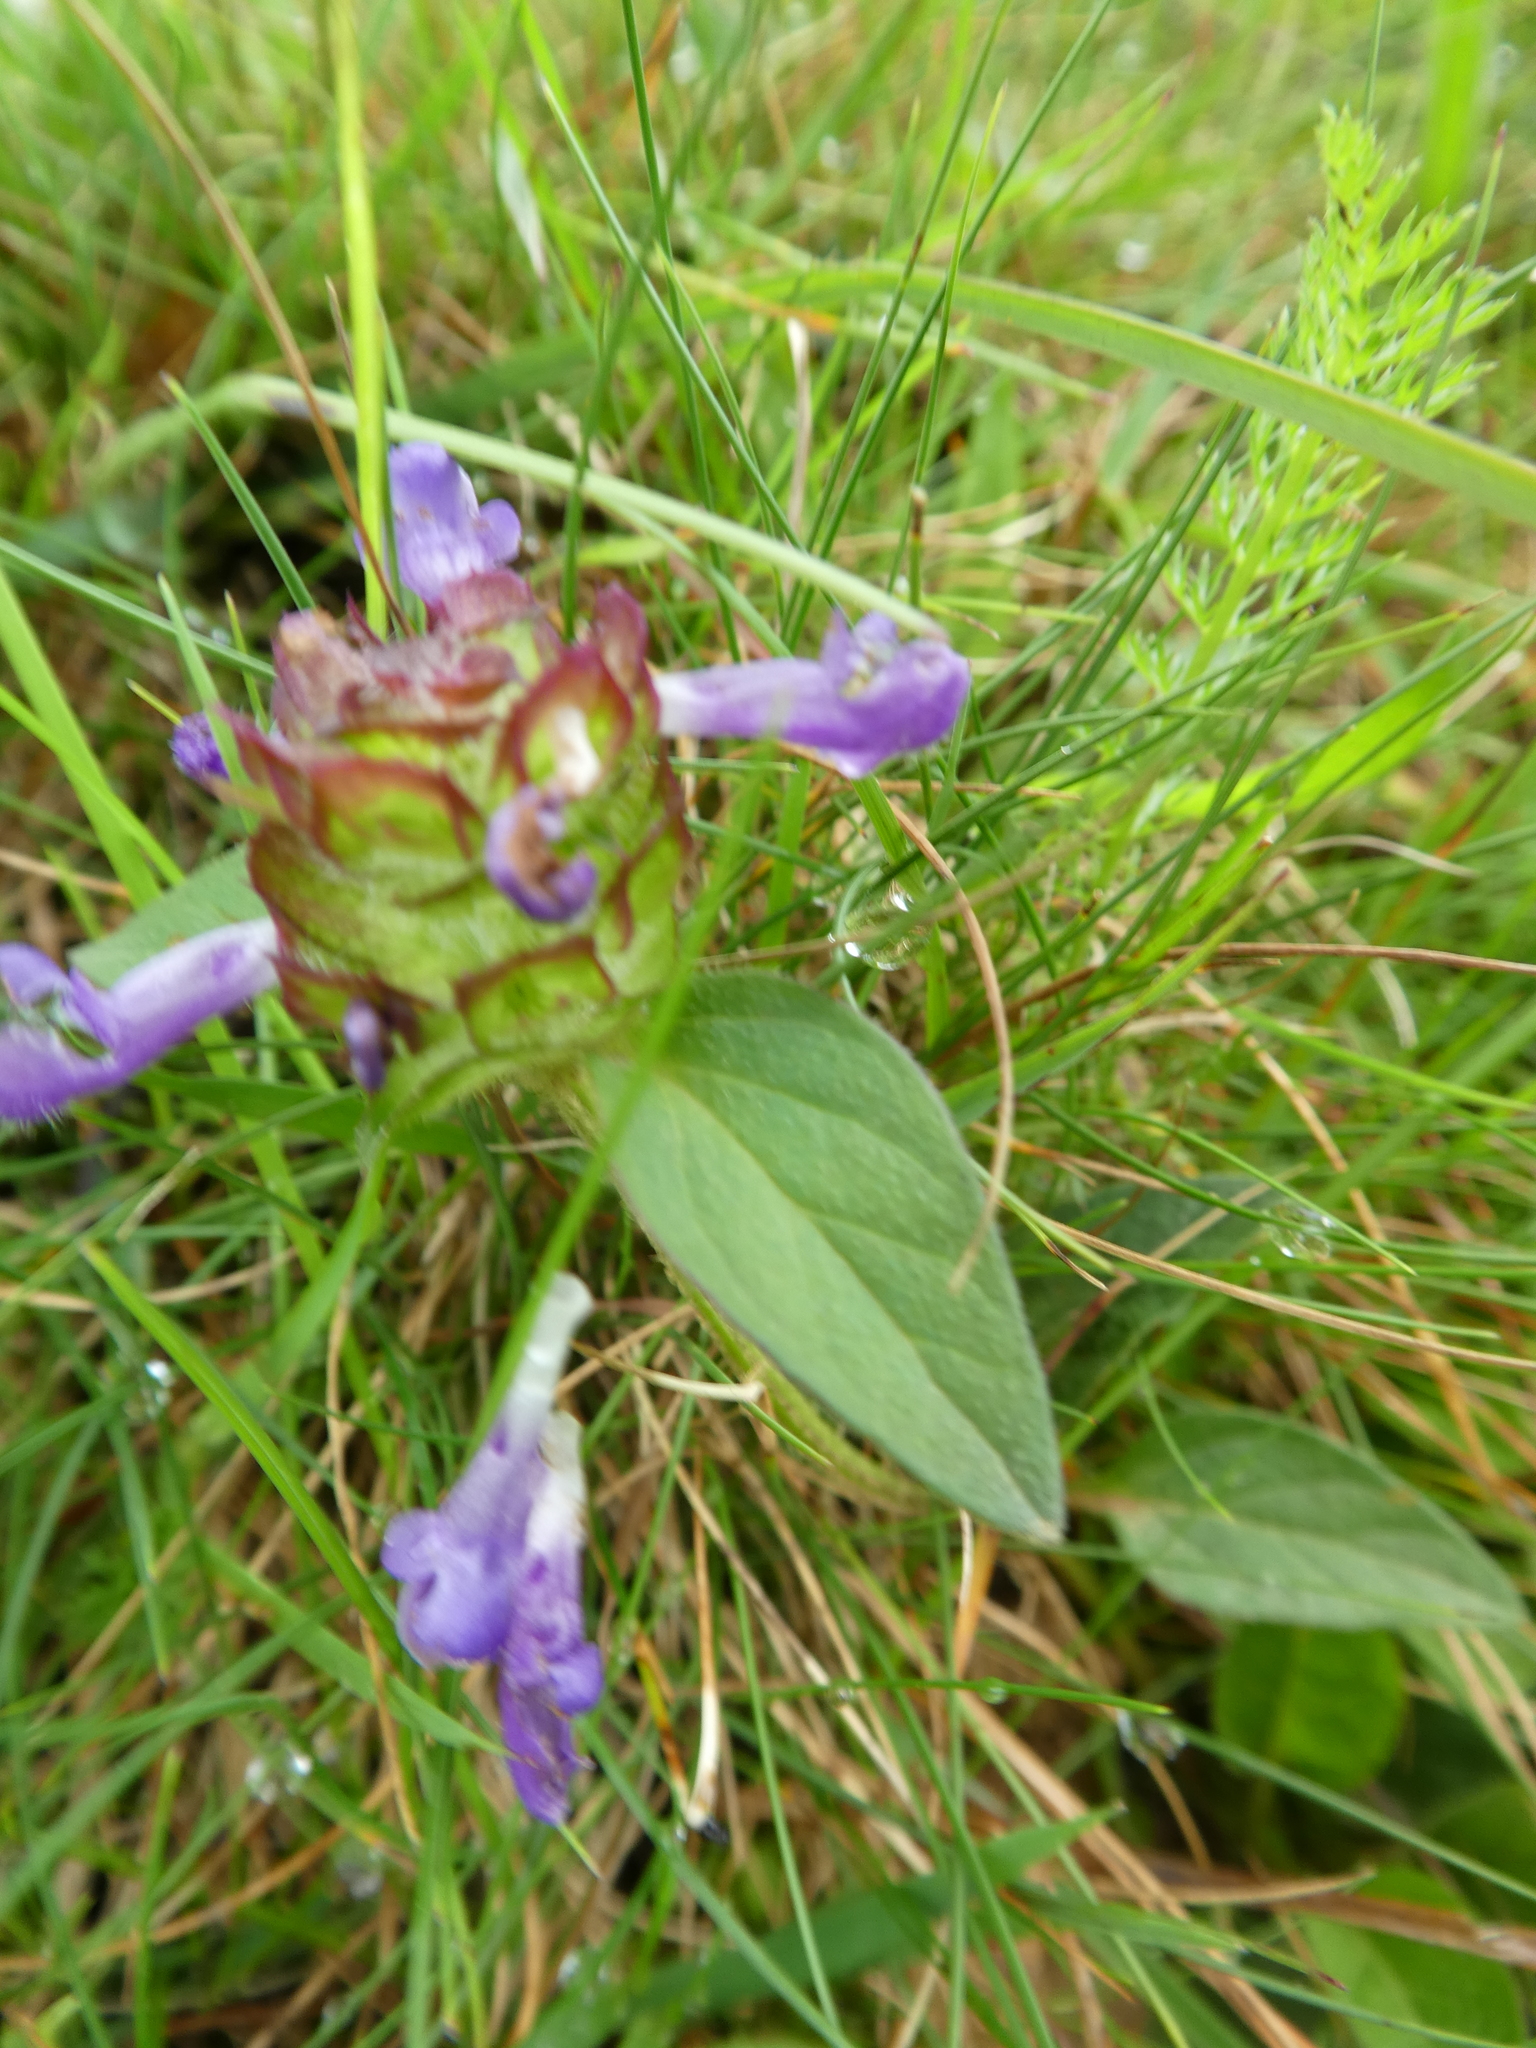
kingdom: Plantae
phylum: Tracheophyta
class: Magnoliopsida
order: Lamiales
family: Lamiaceae
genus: Prunella
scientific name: Prunella vulgaris
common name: Heal-all
